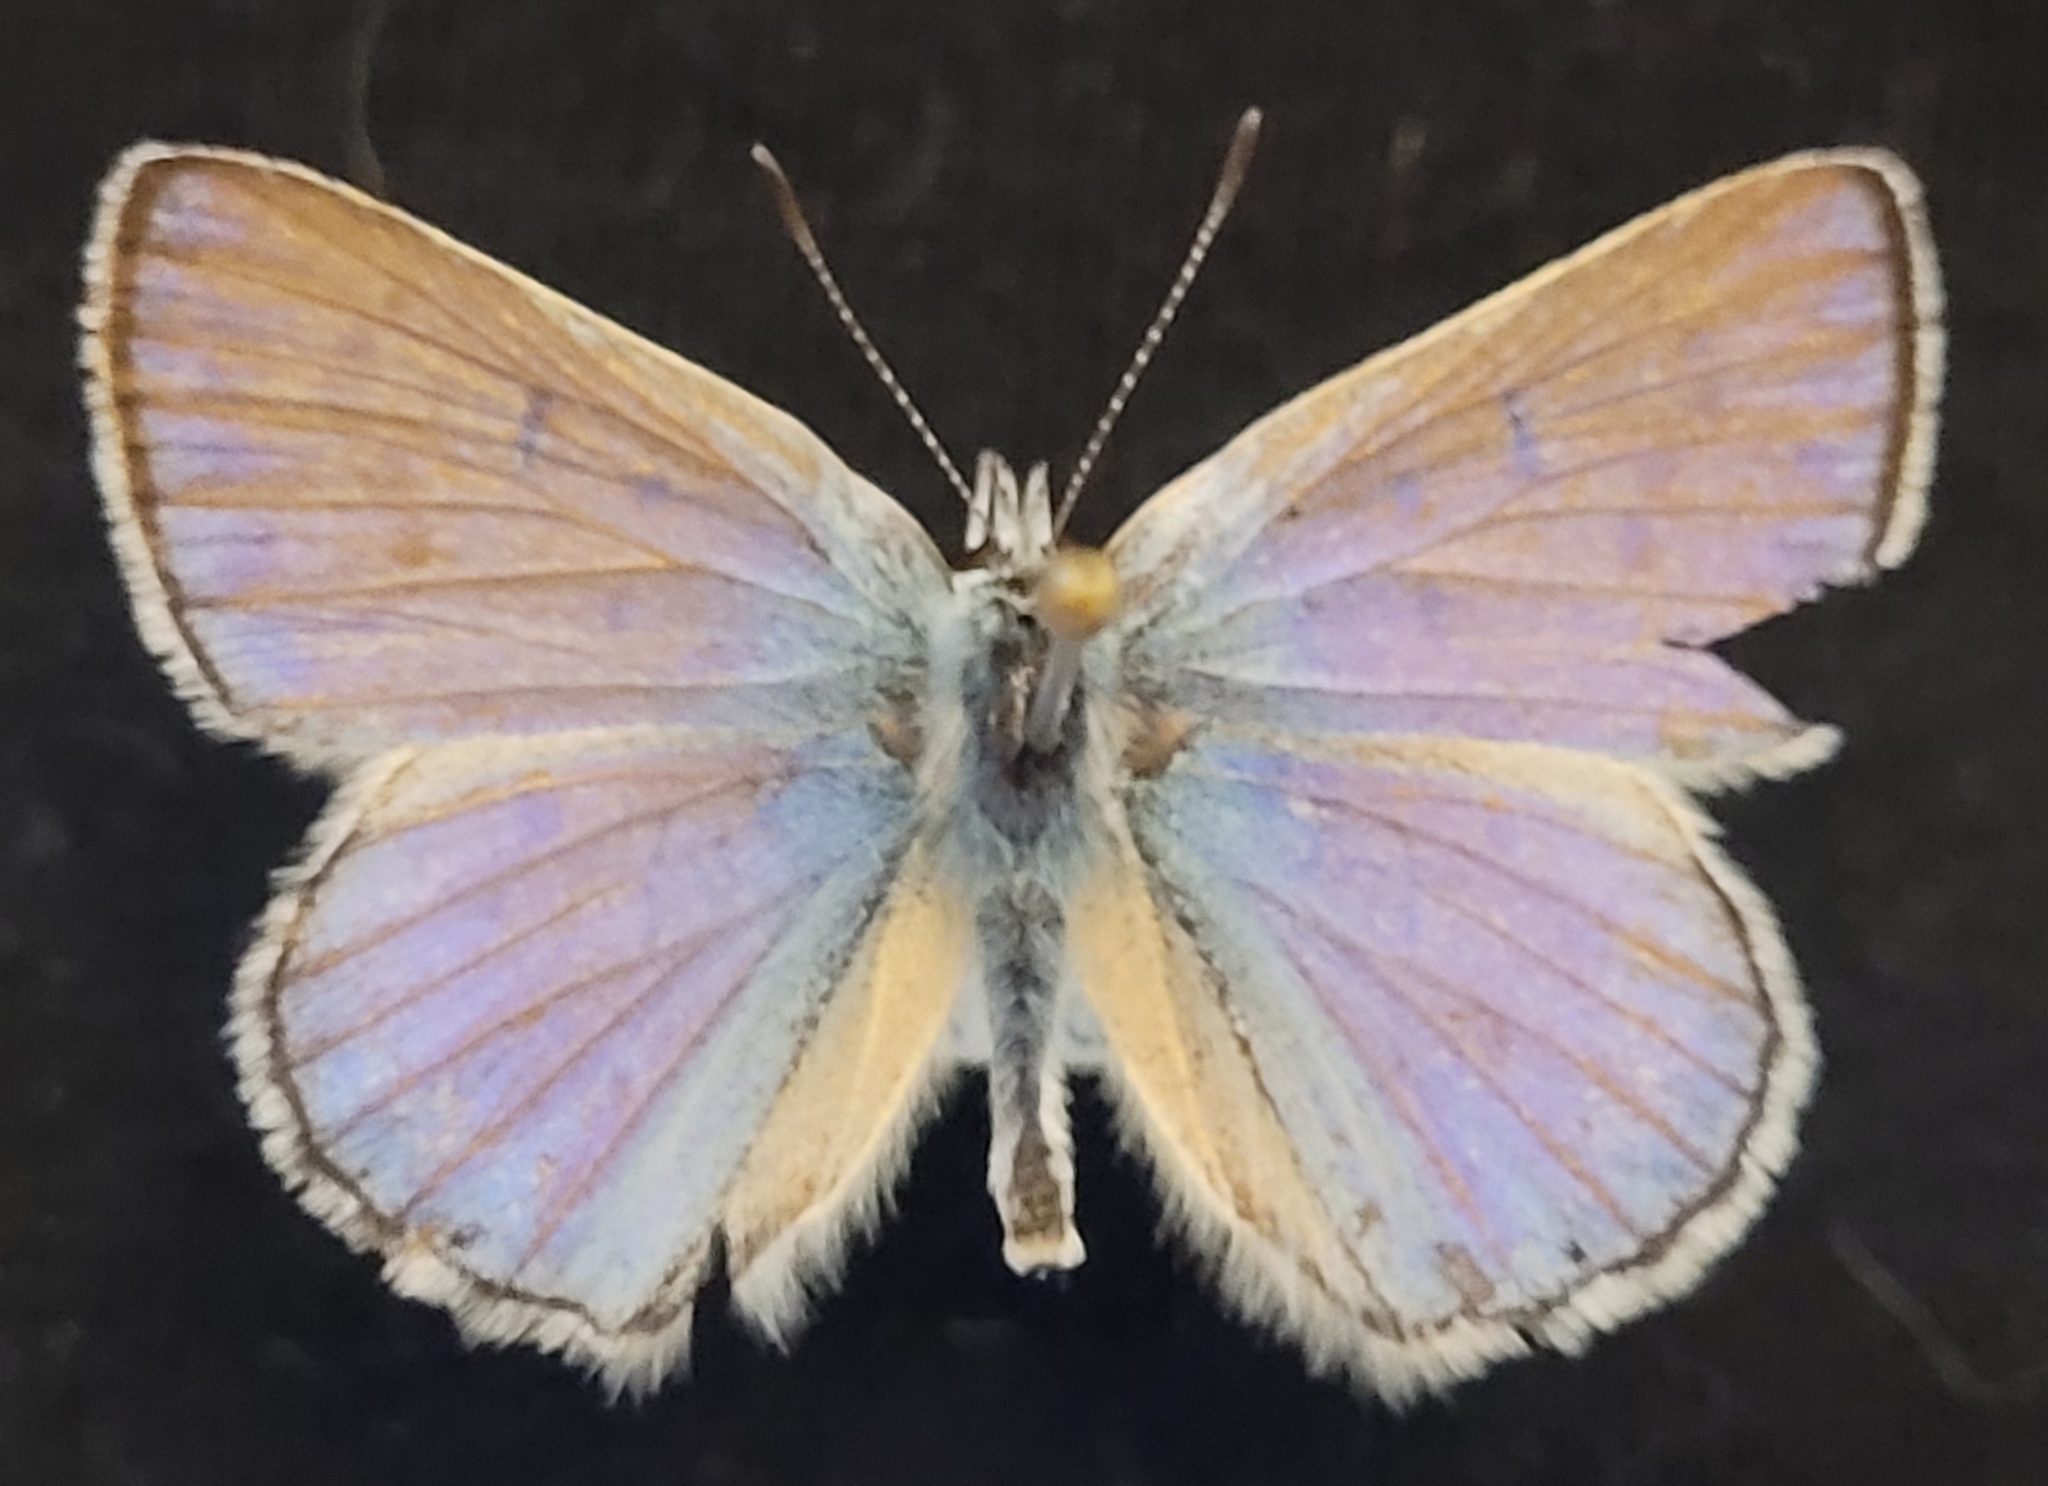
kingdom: Animalia
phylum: Arthropoda
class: Insecta
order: Lepidoptera
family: Lycaenidae
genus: Tharsalea
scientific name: Tharsalea heteronea
